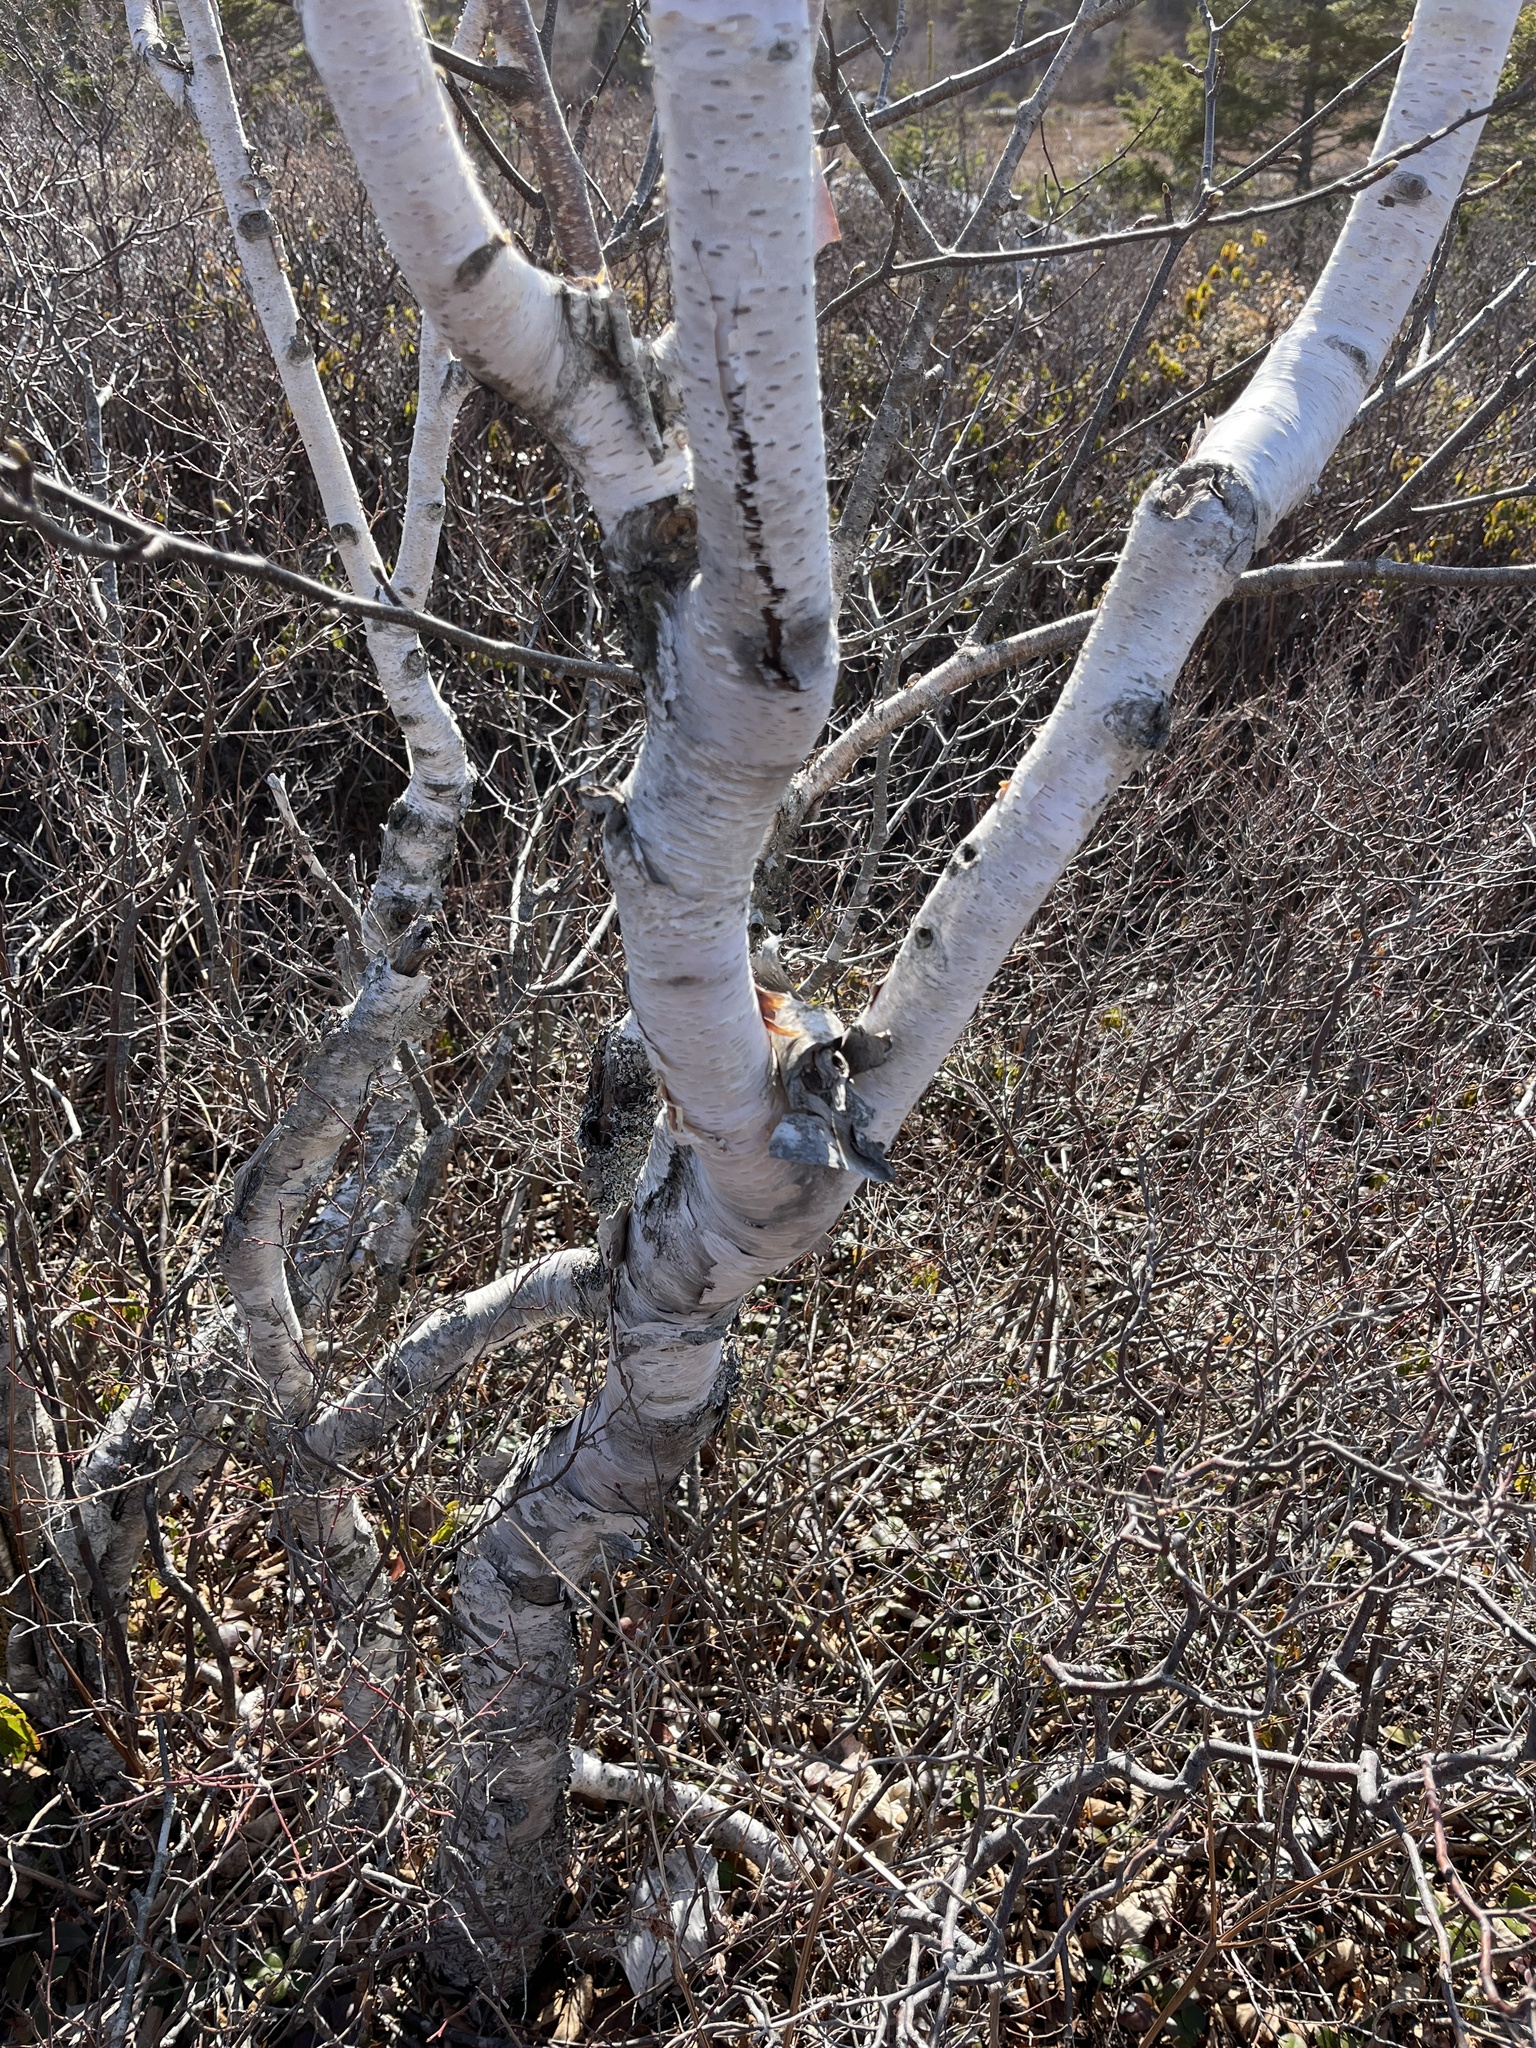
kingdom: Plantae
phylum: Tracheophyta
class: Magnoliopsida
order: Fagales
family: Betulaceae
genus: Betula
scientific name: Betula papyrifera
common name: Paper birch
